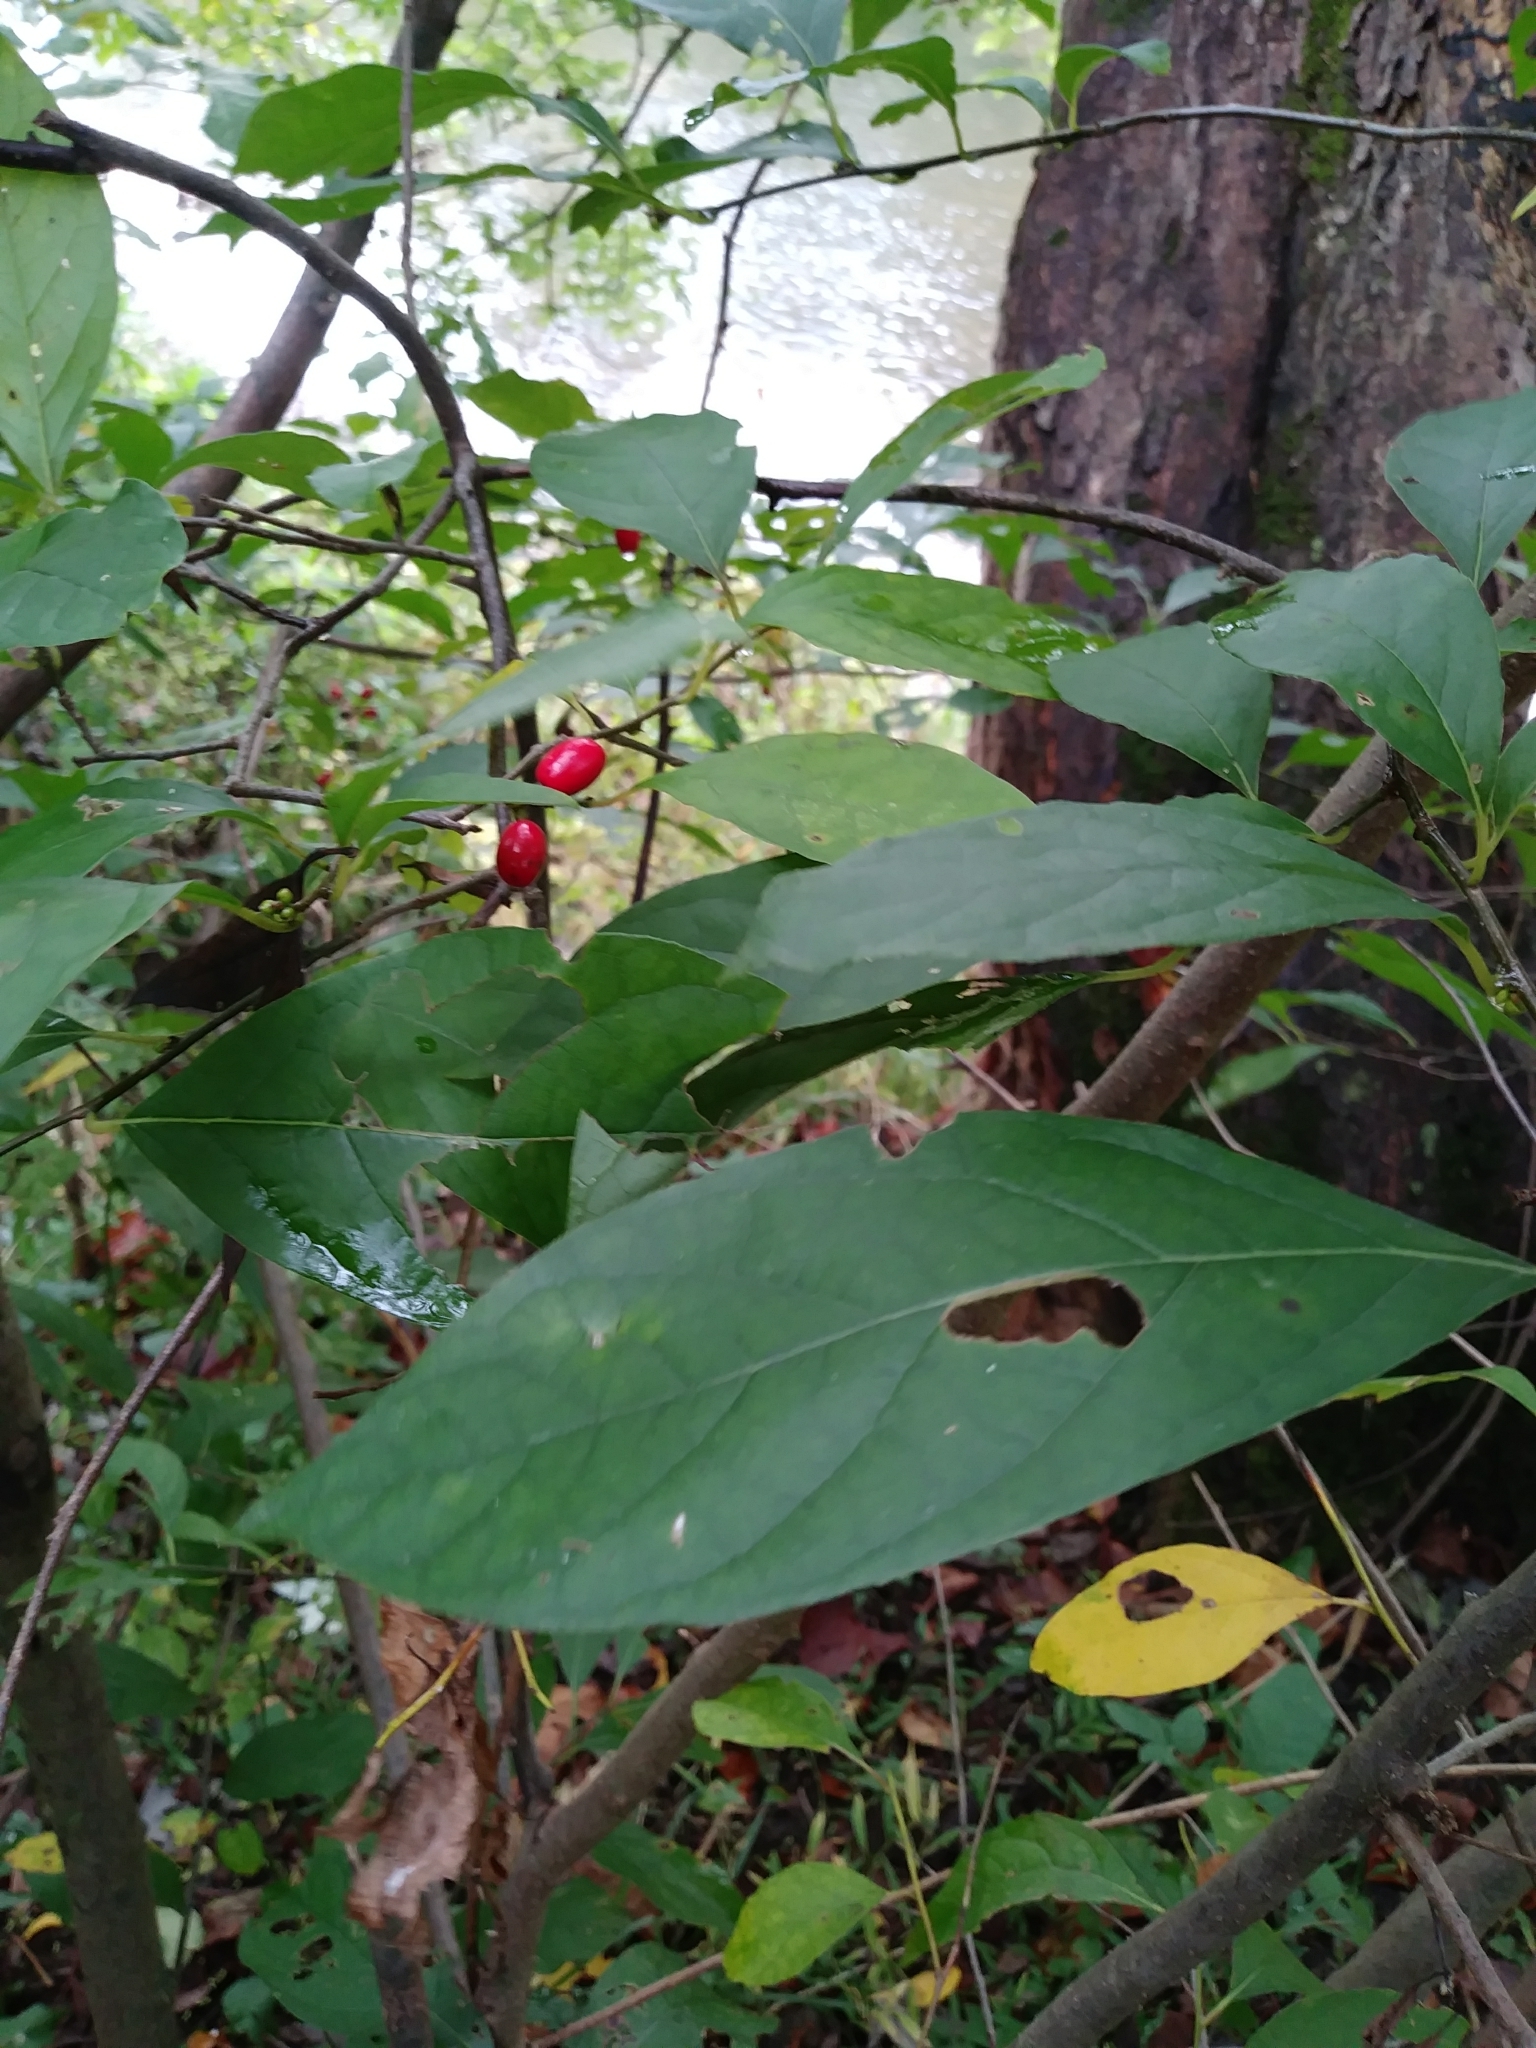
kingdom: Plantae
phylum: Tracheophyta
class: Magnoliopsida
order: Laurales
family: Lauraceae
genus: Lindera
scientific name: Lindera benzoin
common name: Spicebush
